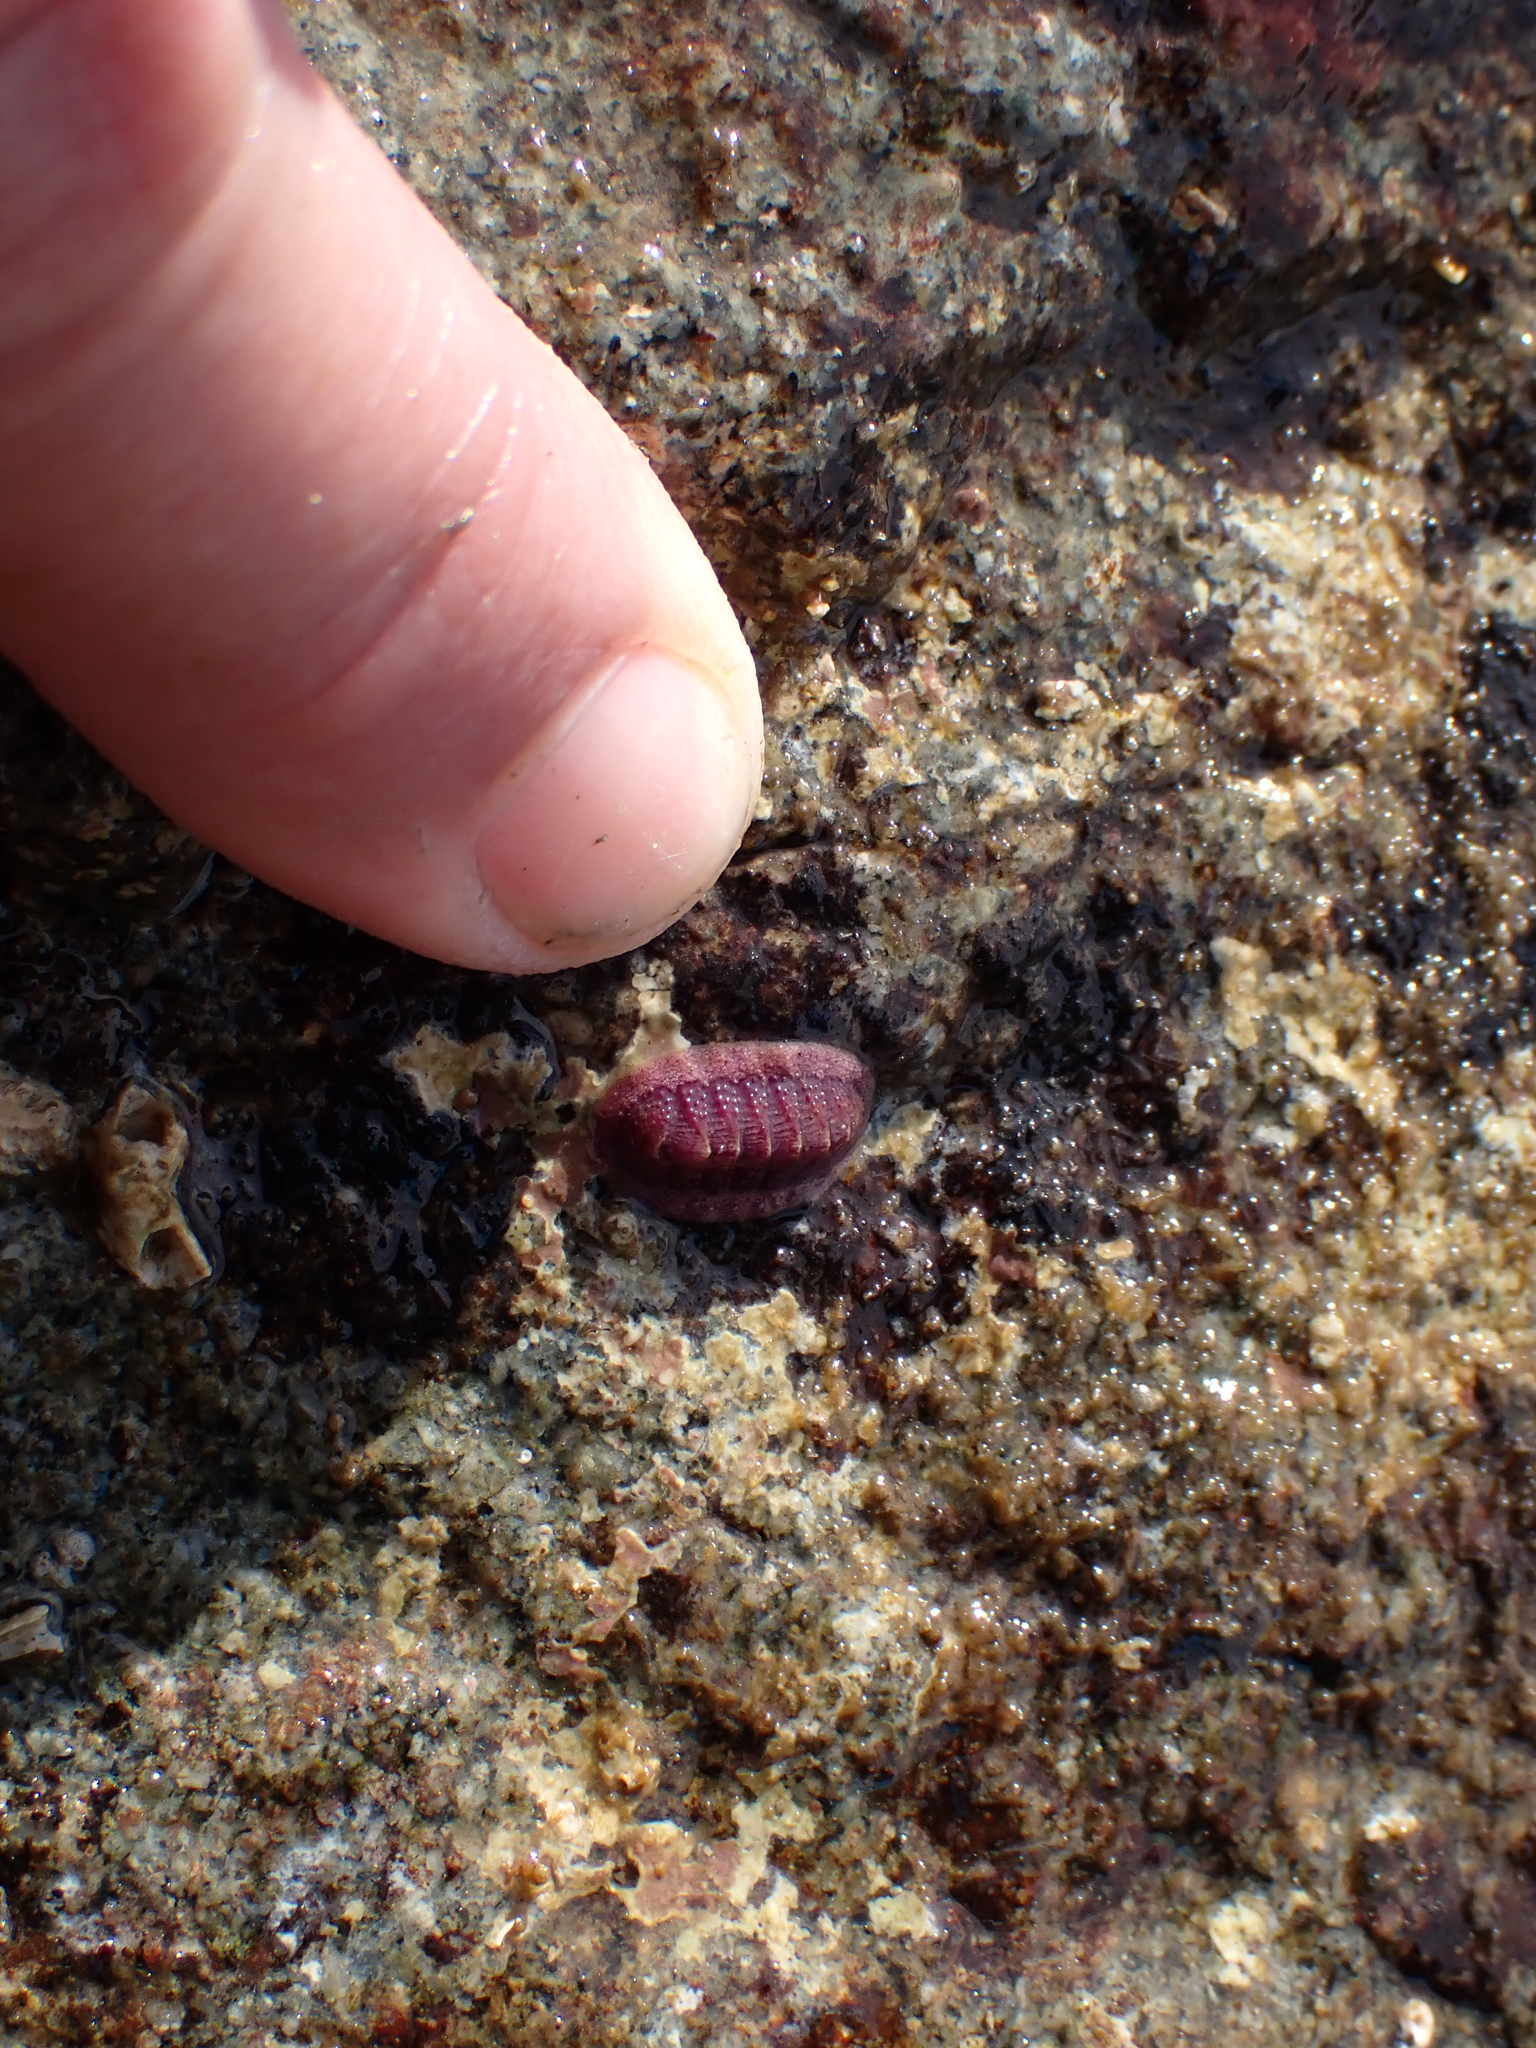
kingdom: Animalia
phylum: Mollusca
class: Polyplacophora
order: Chitonida
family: Ischnochitonidae
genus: Lepidozona
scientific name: Lepidozona mertensii
